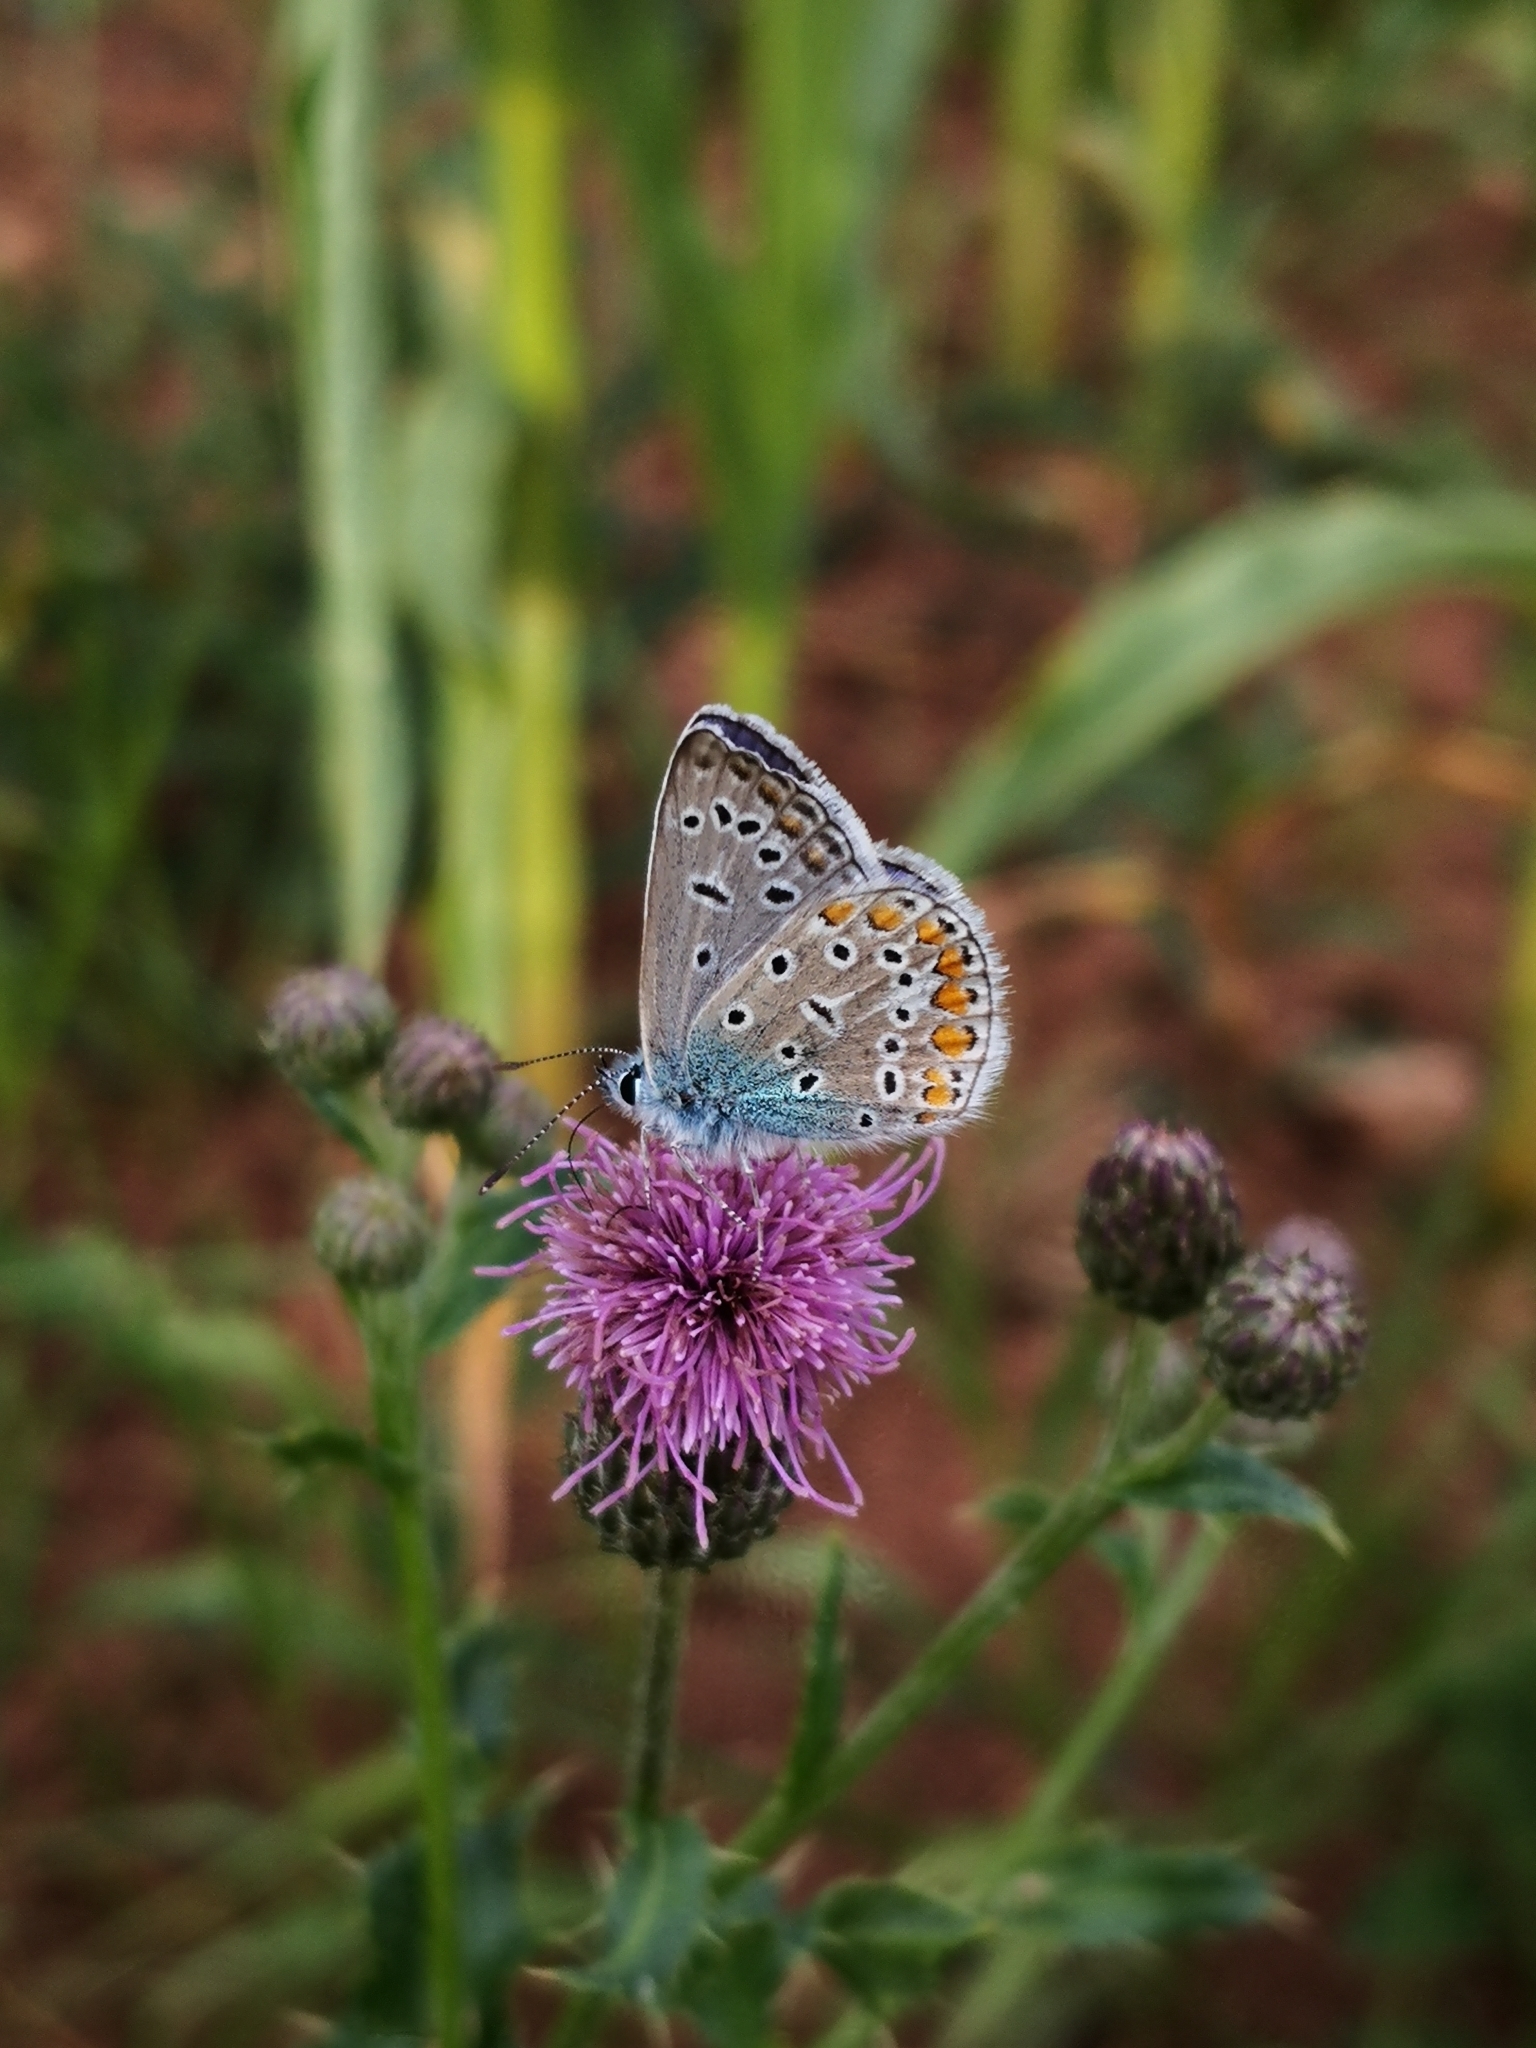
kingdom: Animalia
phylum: Arthropoda
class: Insecta
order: Lepidoptera
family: Lycaenidae
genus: Polyommatus
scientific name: Polyommatus icarus
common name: Common blue
